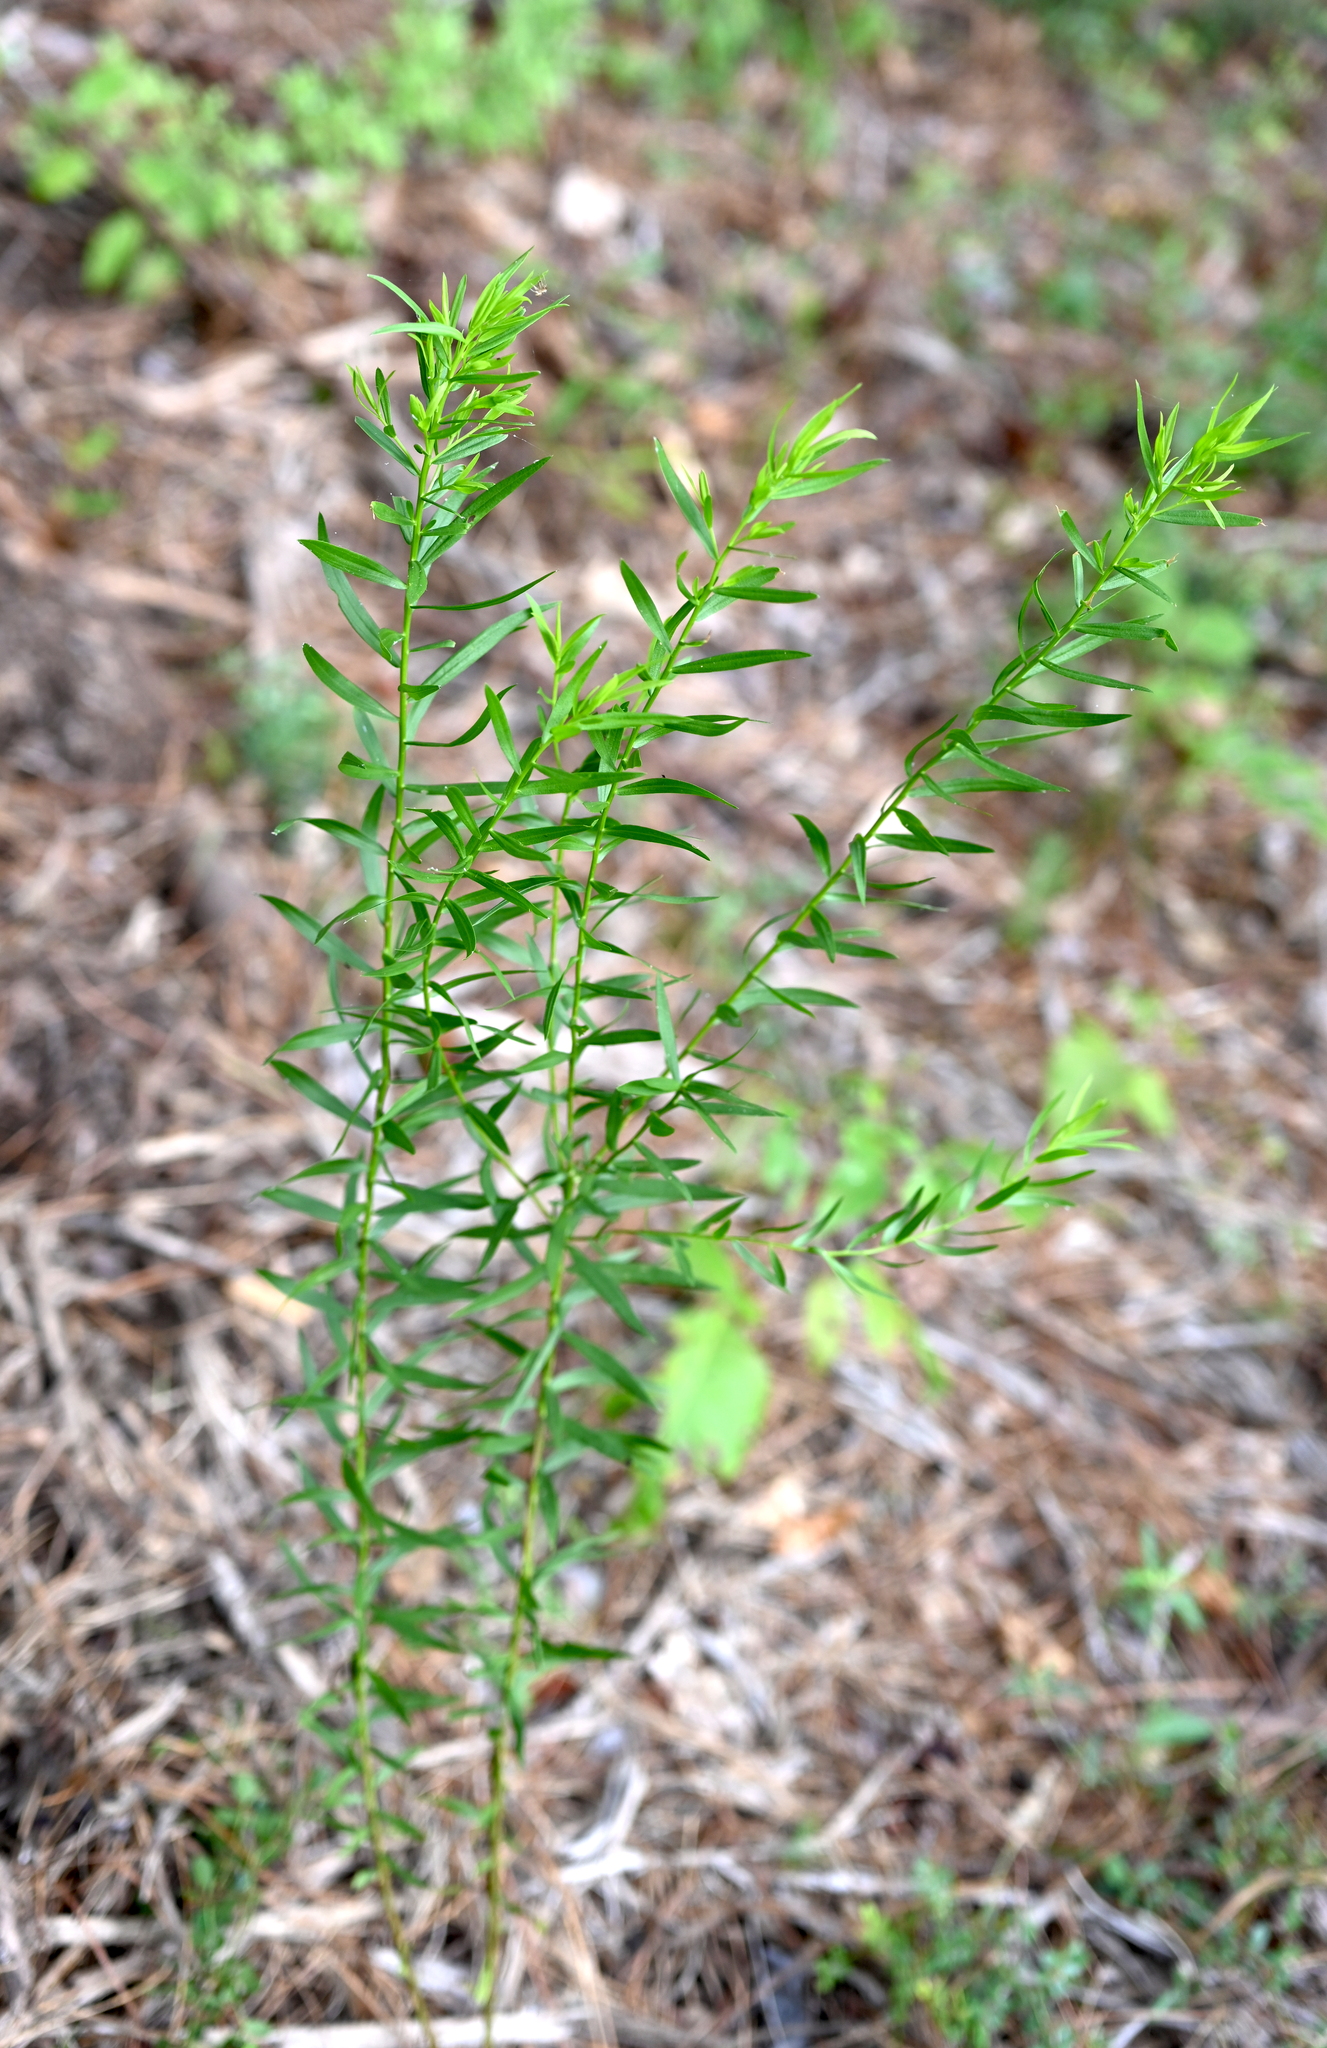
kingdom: Plantae
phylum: Tracheophyta
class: Magnoliopsida
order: Asterales
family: Asteraceae
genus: Euthamia
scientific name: Euthamia leptocephala
